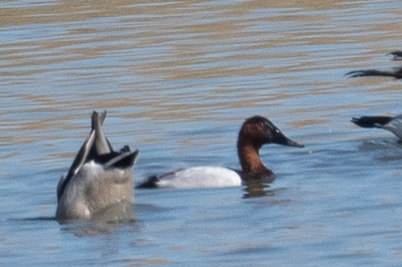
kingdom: Animalia
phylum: Chordata
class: Aves
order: Anseriformes
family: Anatidae
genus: Aythya
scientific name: Aythya valisineria
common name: Canvasback
